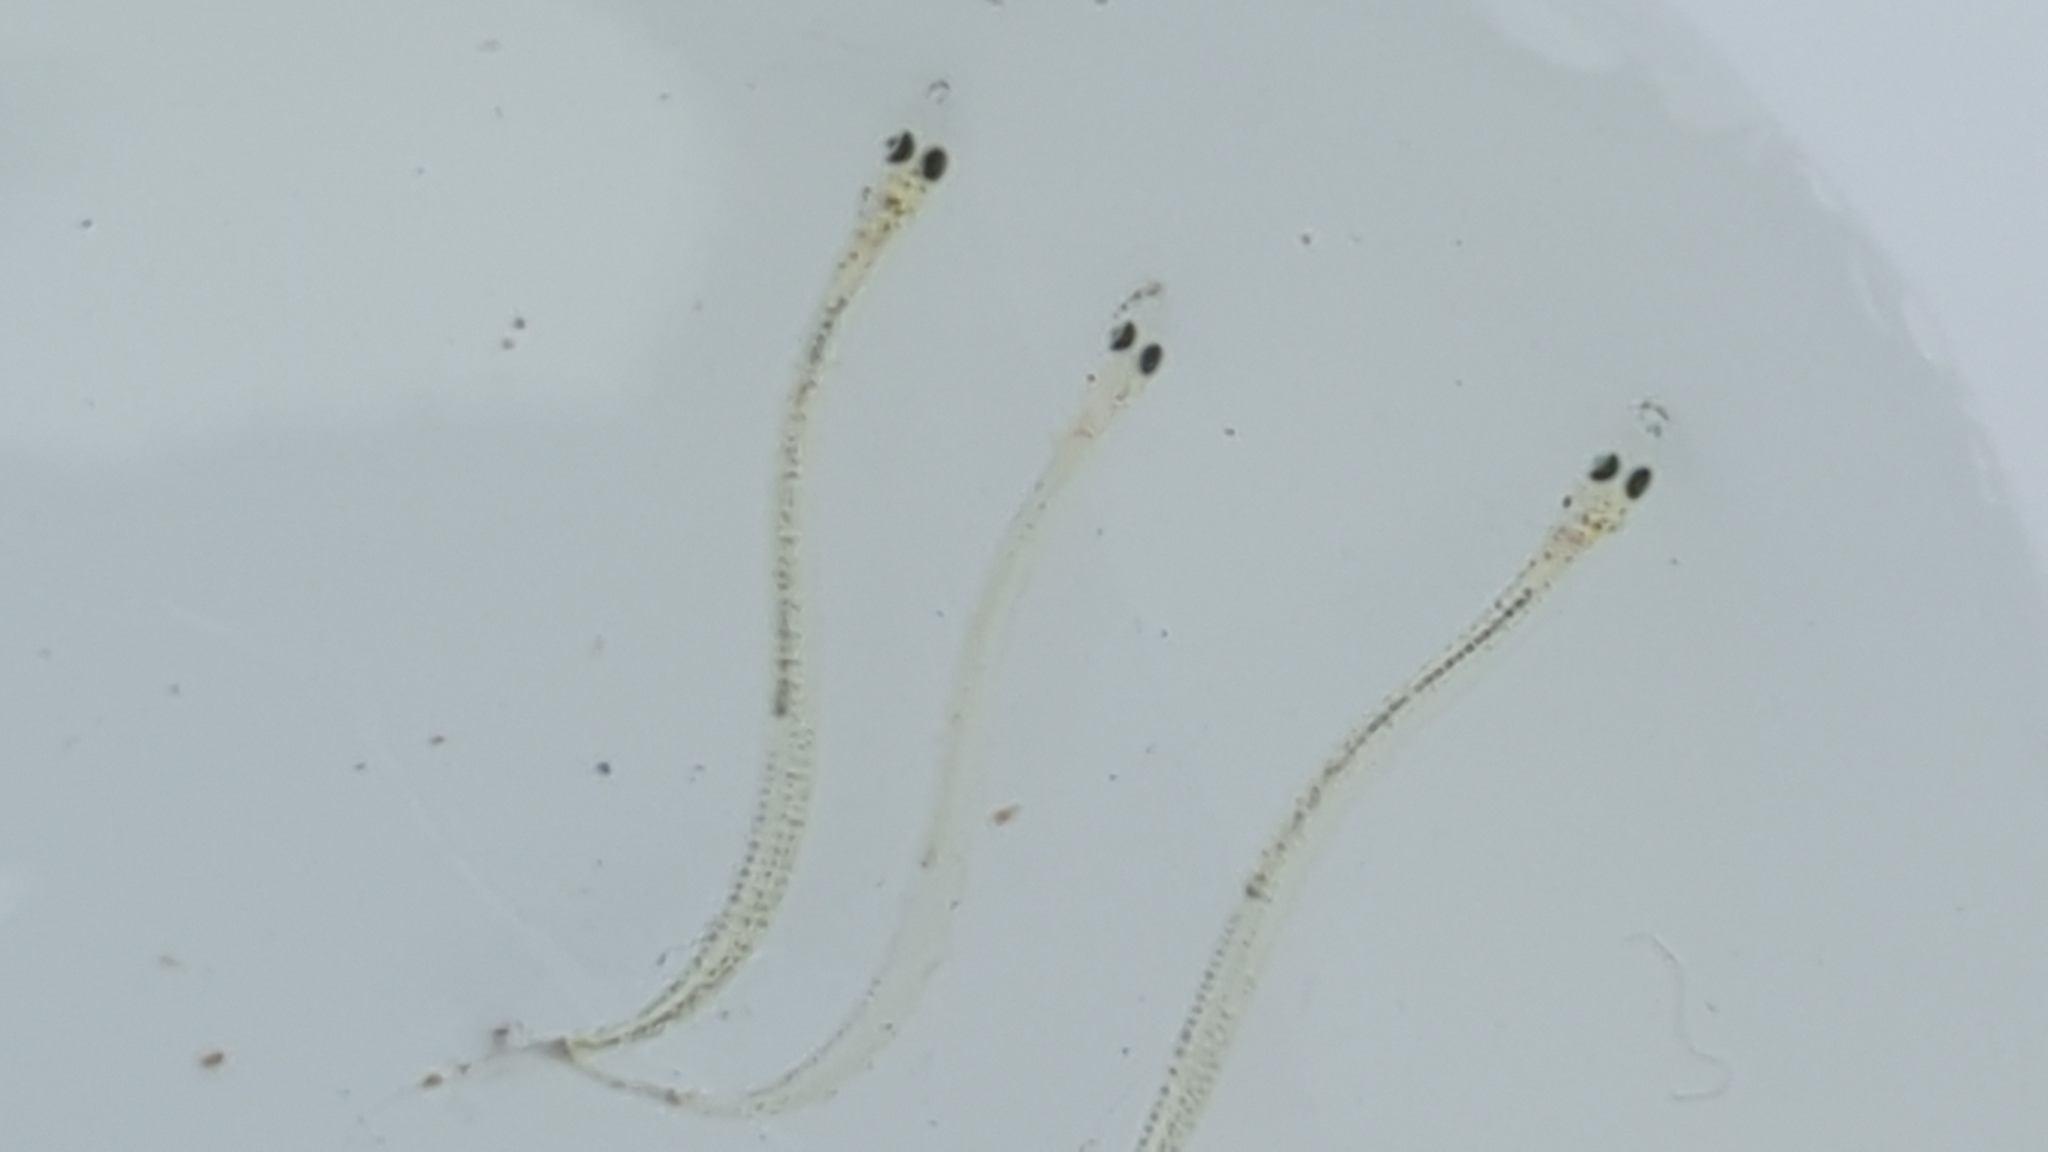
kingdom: Animalia
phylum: Chordata
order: Perciformes
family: Ammodytidae
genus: Ammodytes
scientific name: Ammodytes personatus
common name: Japanese sand lance
